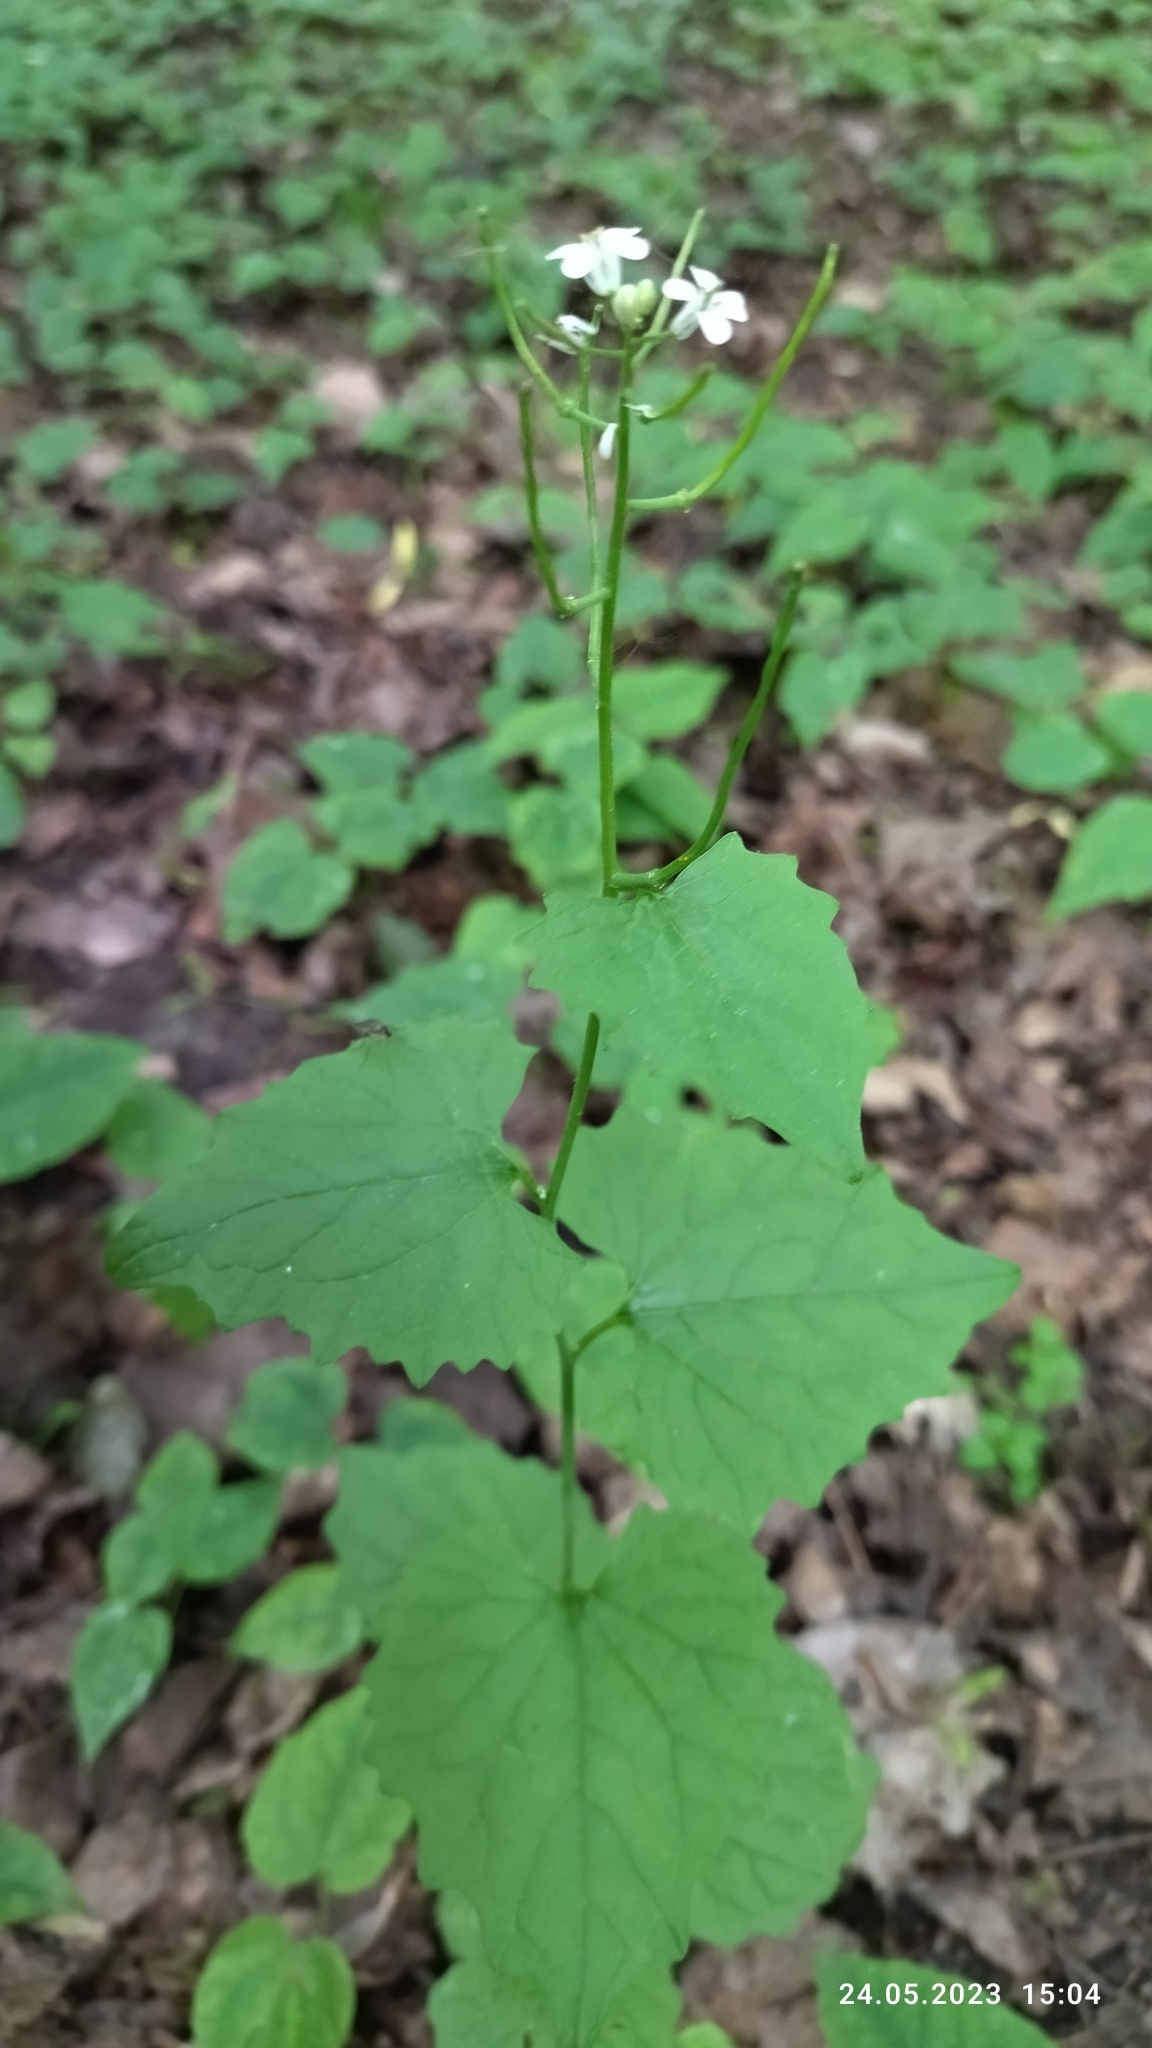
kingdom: Plantae
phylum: Tracheophyta
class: Magnoliopsida
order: Brassicales
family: Brassicaceae
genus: Alliaria
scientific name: Alliaria petiolata
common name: Garlic mustard
